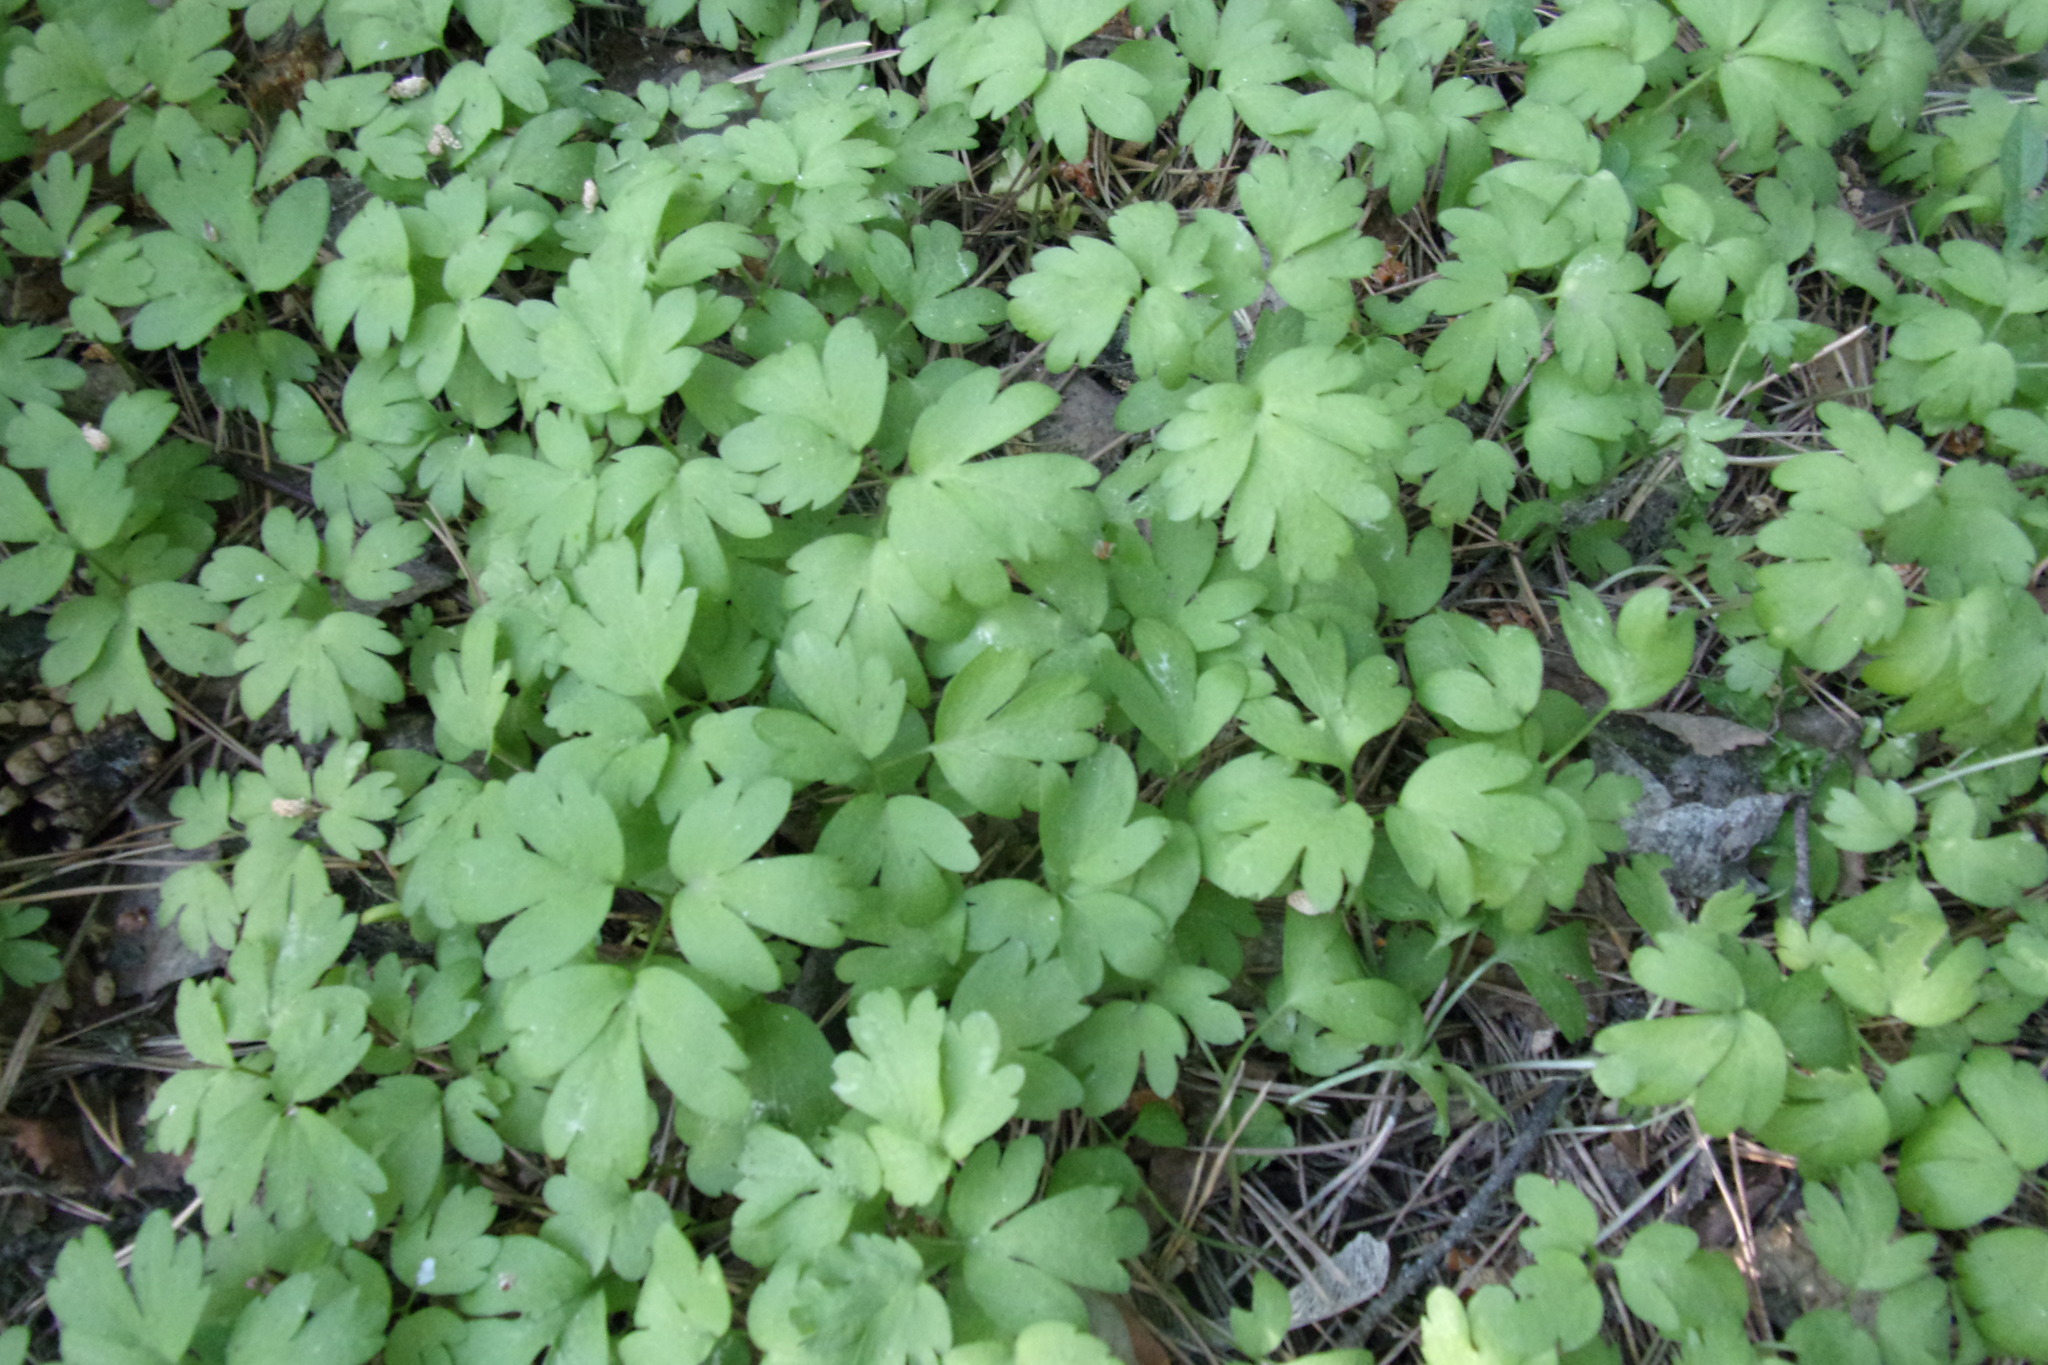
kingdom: Plantae
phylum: Tracheophyta
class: Magnoliopsida
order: Dipsacales
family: Viburnaceae
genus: Adoxa
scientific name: Adoxa moschatellina
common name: Moschatel
